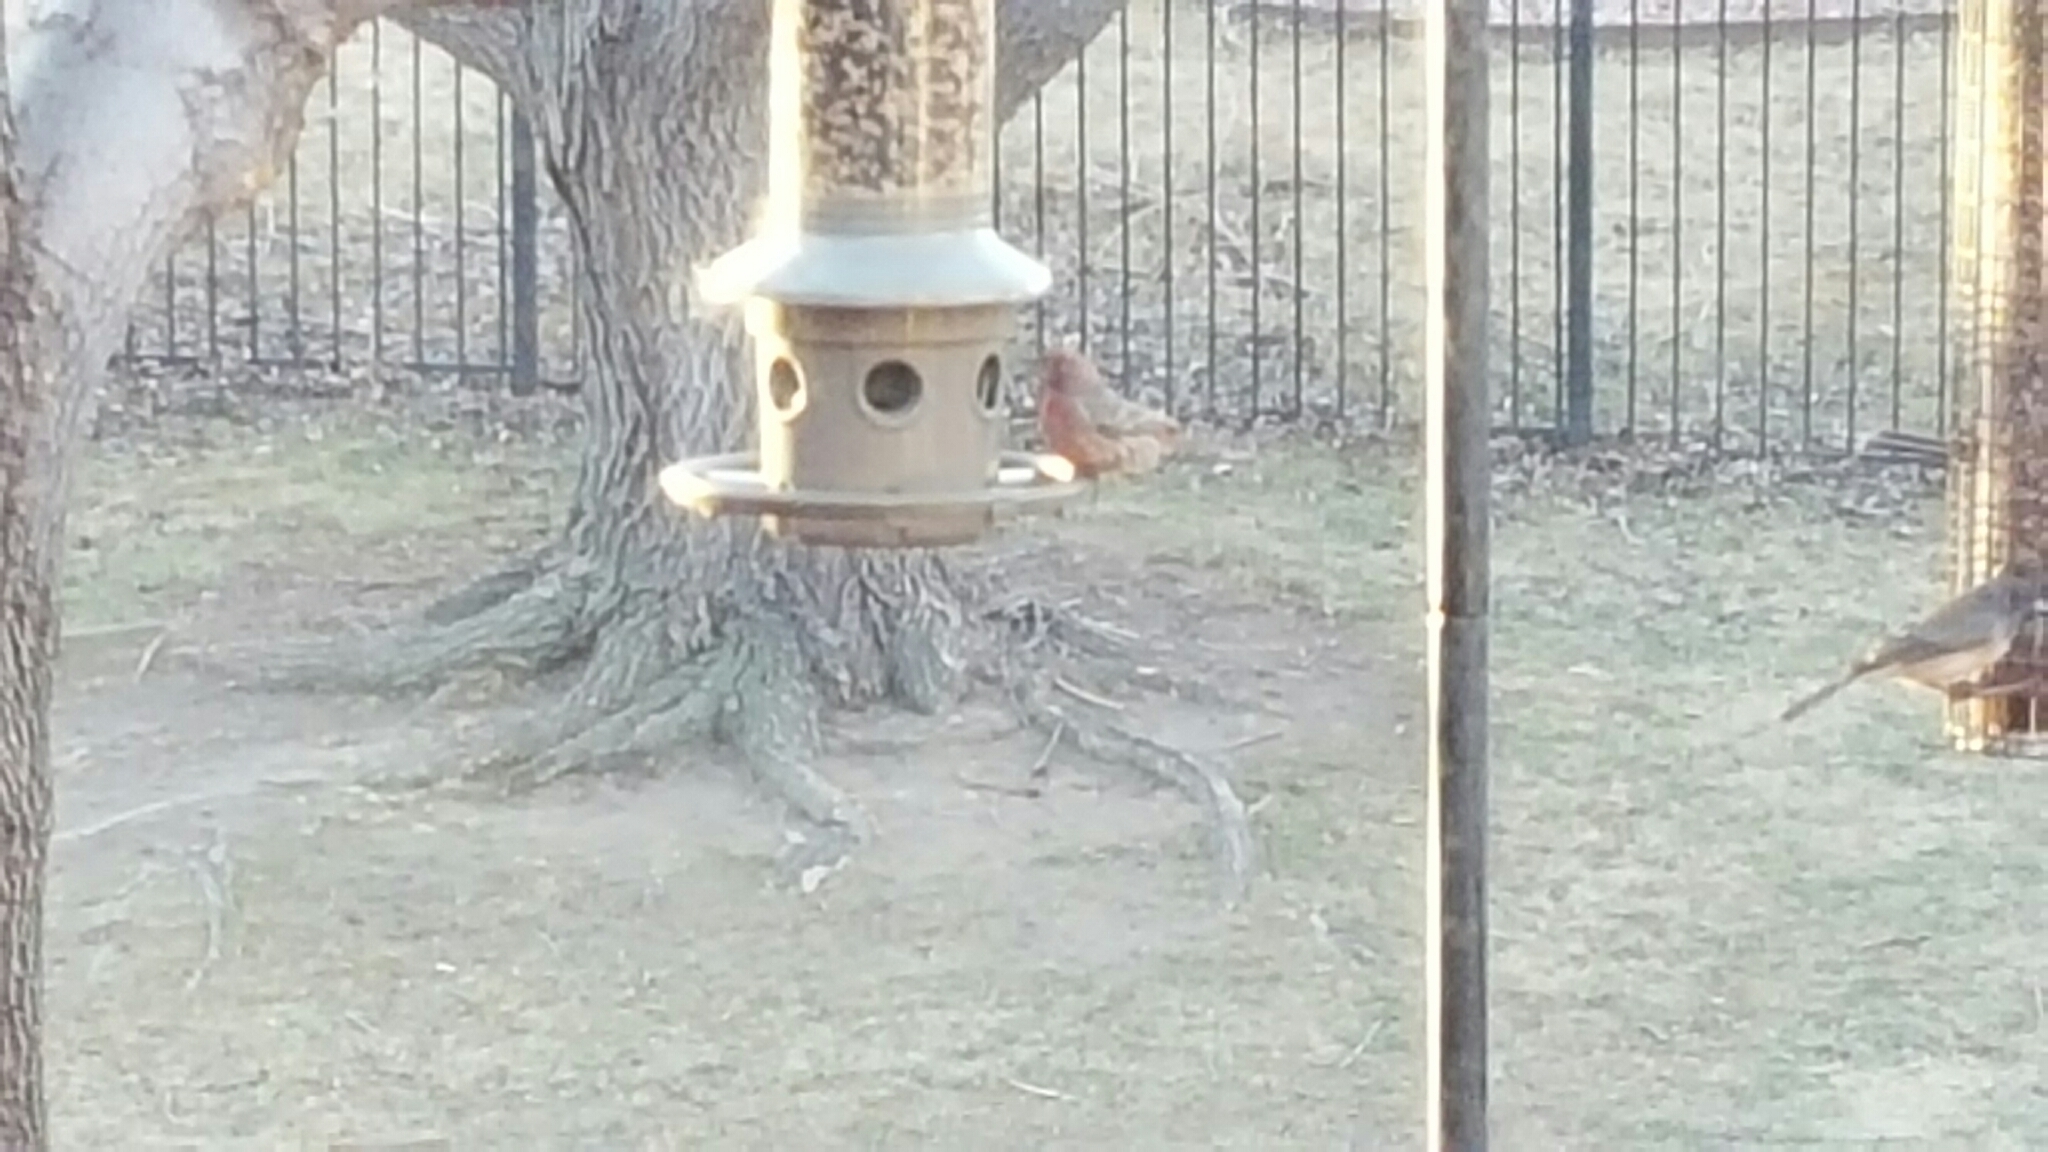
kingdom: Animalia
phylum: Chordata
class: Aves
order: Passeriformes
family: Fringillidae
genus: Haemorhous
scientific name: Haemorhous mexicanus
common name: House finch
